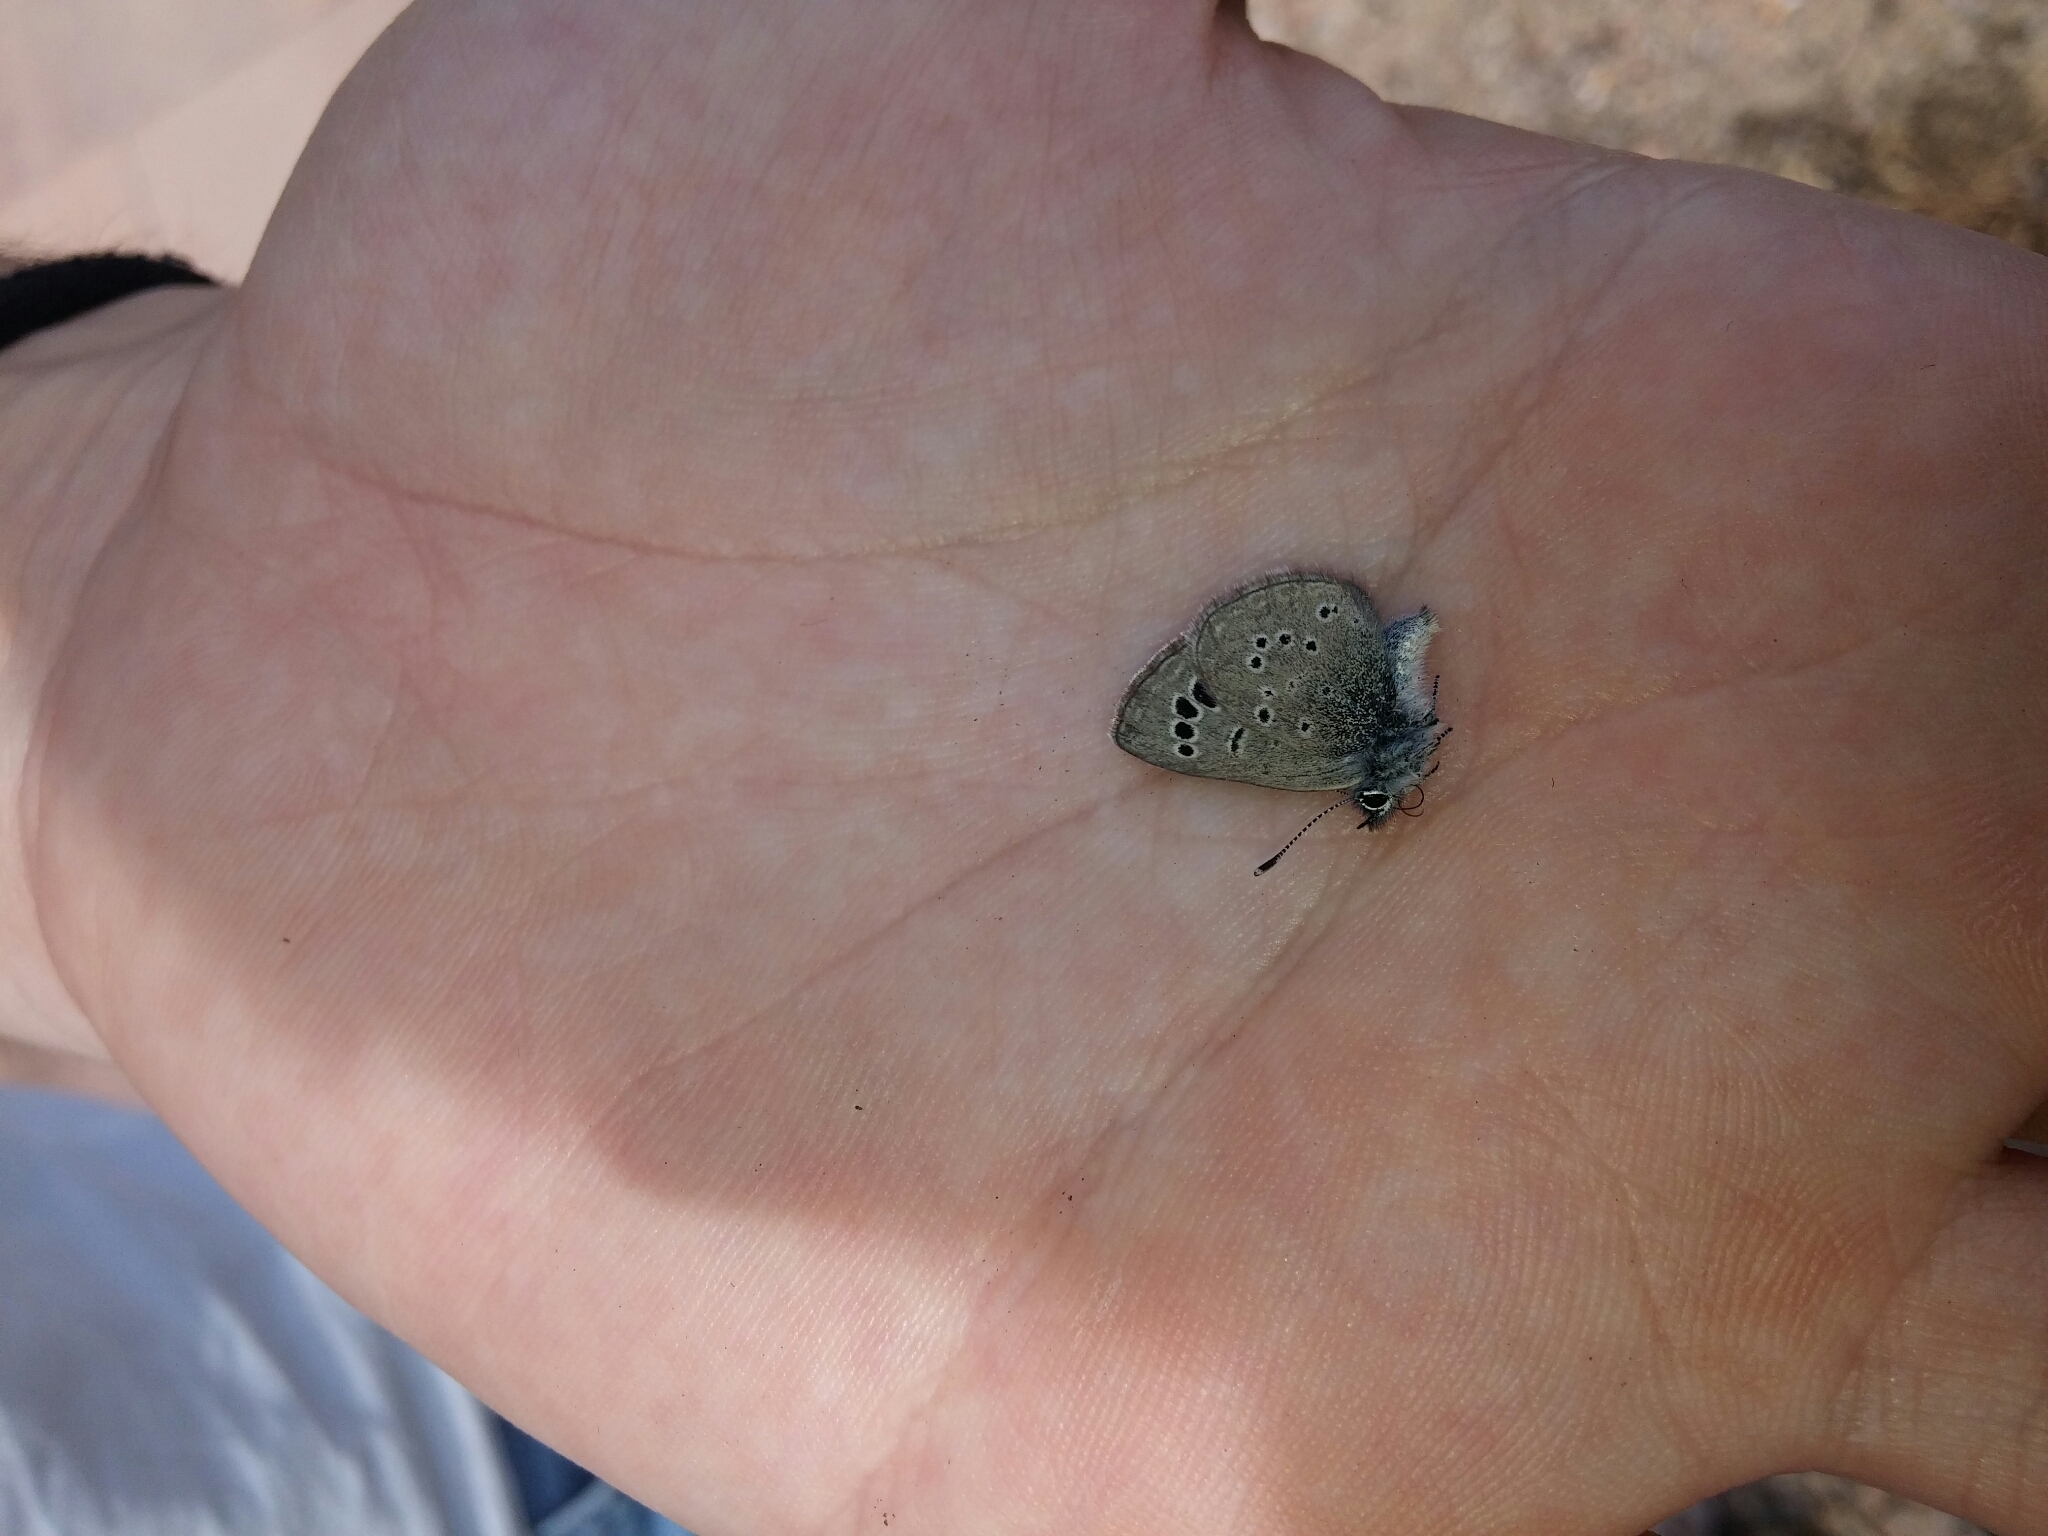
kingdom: Animalia
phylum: Arthropoda
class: Insecta
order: Lepidoptera
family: Lycaenidae
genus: Glaucopsyche
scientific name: Glaucopsyche melanops
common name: Black-eyed blue
